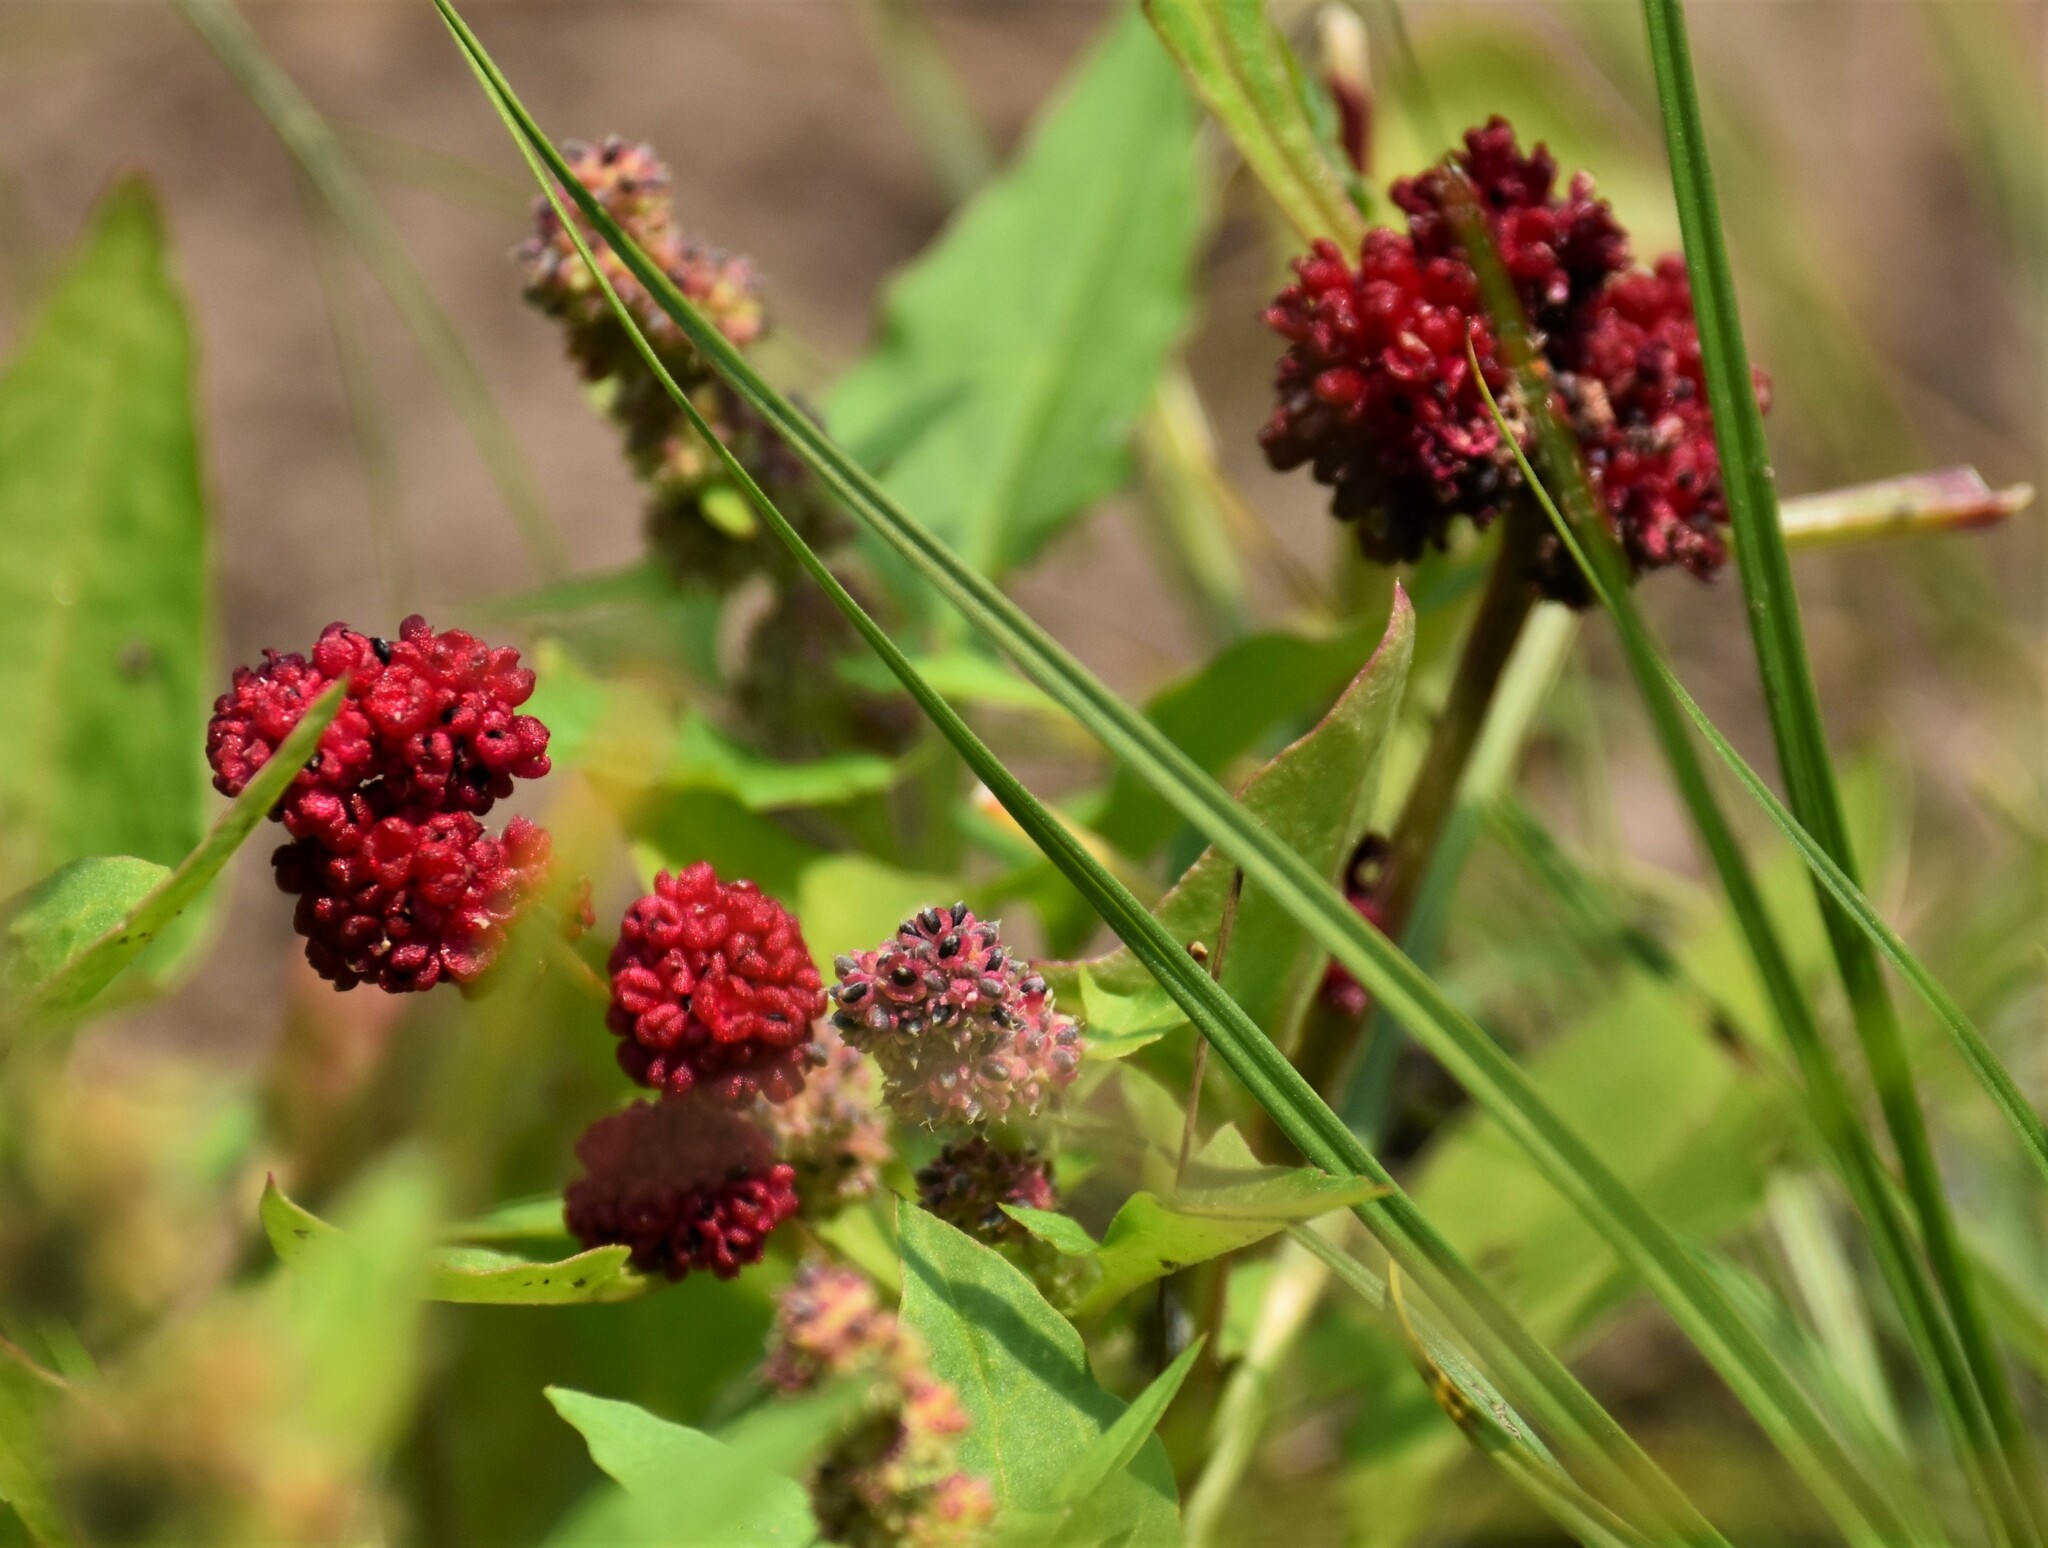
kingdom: Plantae
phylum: Tracheophyta
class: Magnoliopsida
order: Caryophyllales
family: Amaranthaceae
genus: Blitum
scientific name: Blitum capitatum
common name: Strawberry-blight
